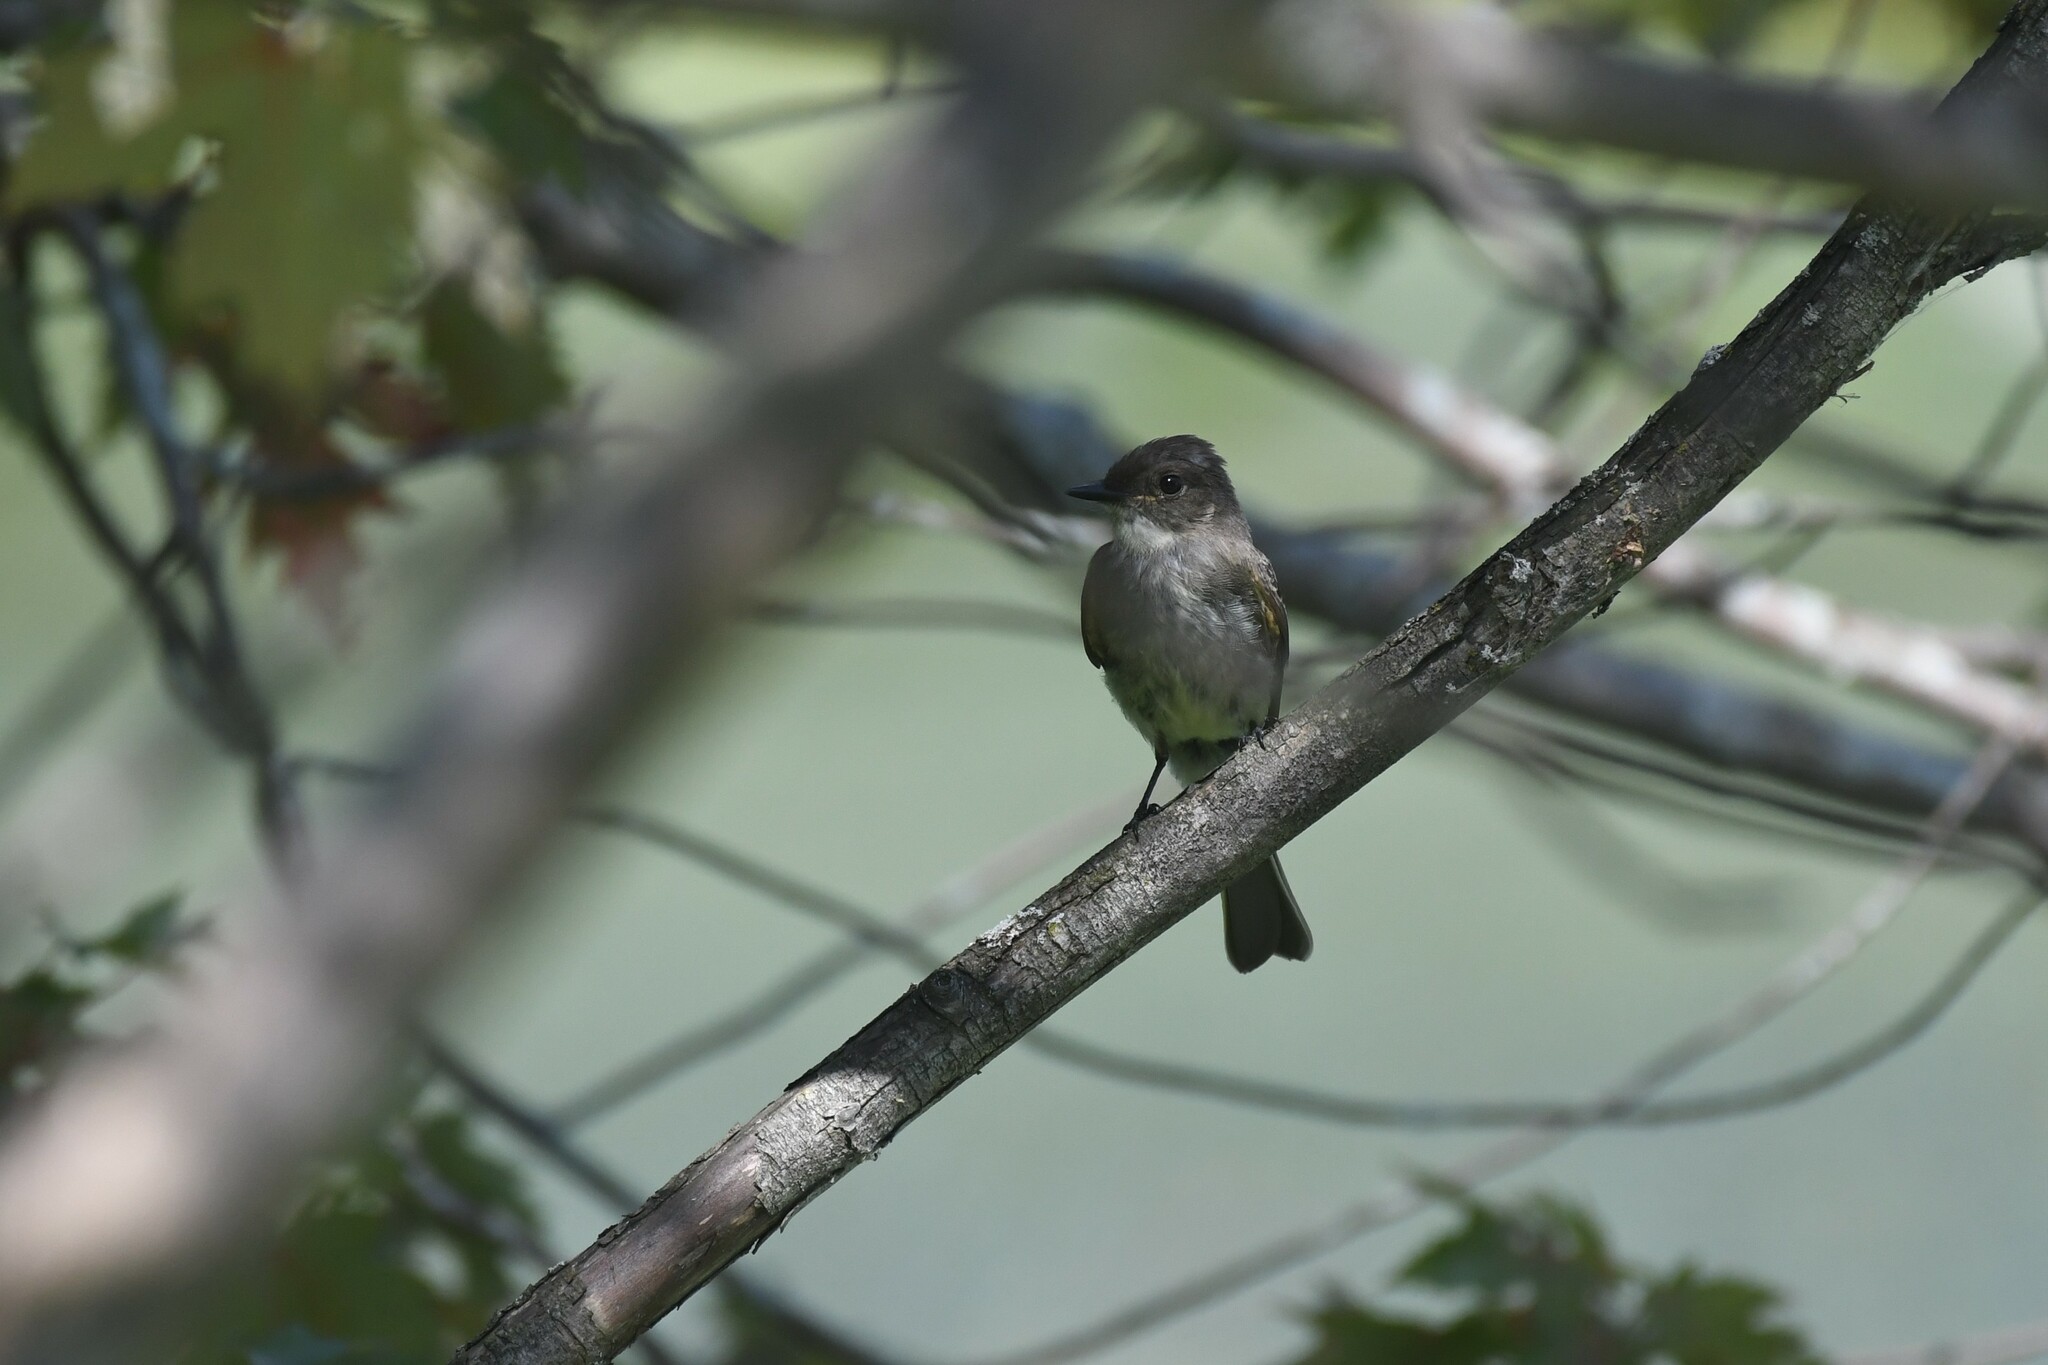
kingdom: Animalia
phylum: Chordata
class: Aves
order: Passeriformes
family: Tyrannidae
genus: Sayornis
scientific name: Sayornis phoebe
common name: Eastern phoebe
